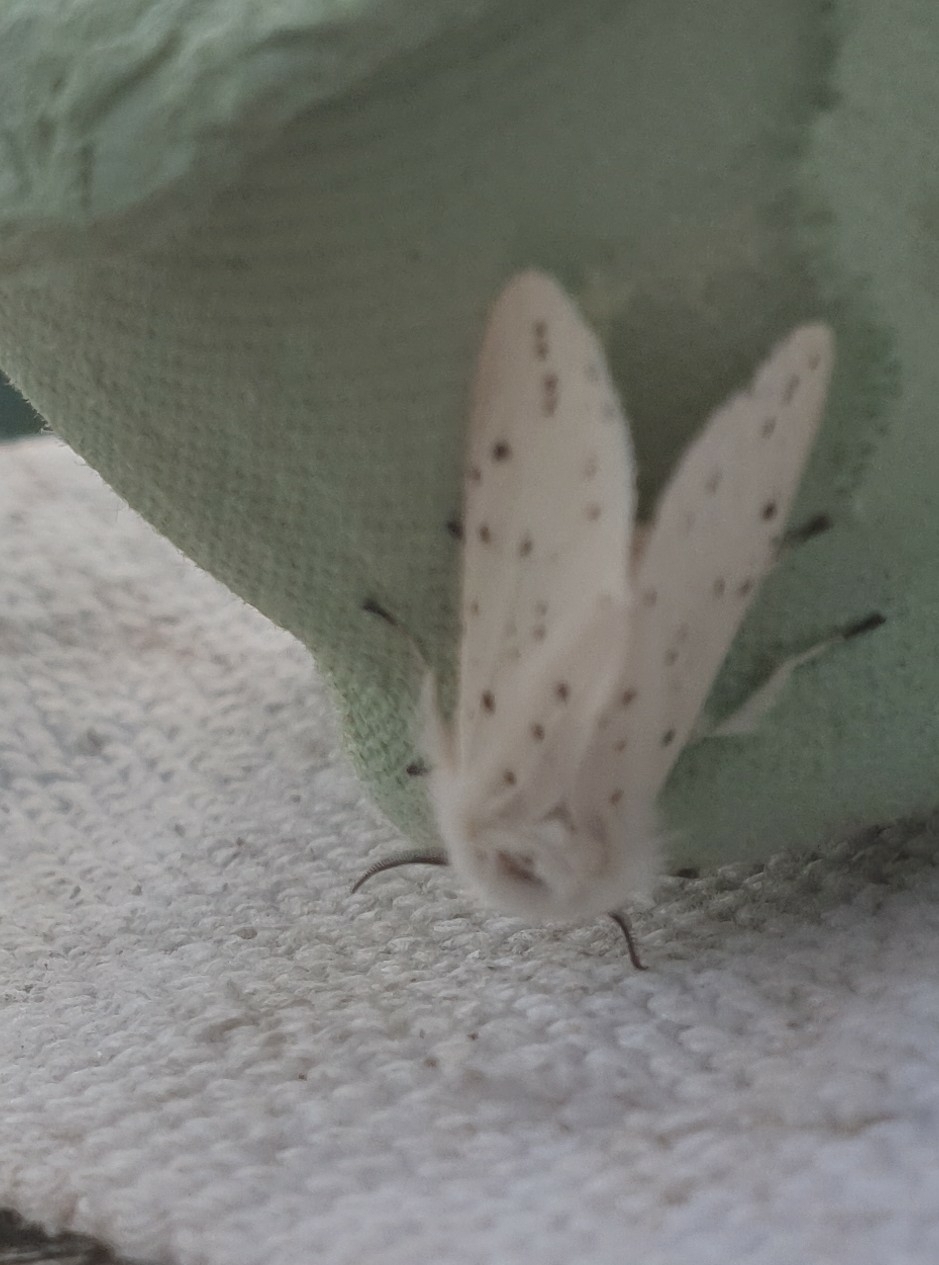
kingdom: Animalia
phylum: Arthropoda
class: Insecta
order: Lepidoptera
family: Erebidae
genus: Spilosoma
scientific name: Spilosoma lubricipeda
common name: White ermine
